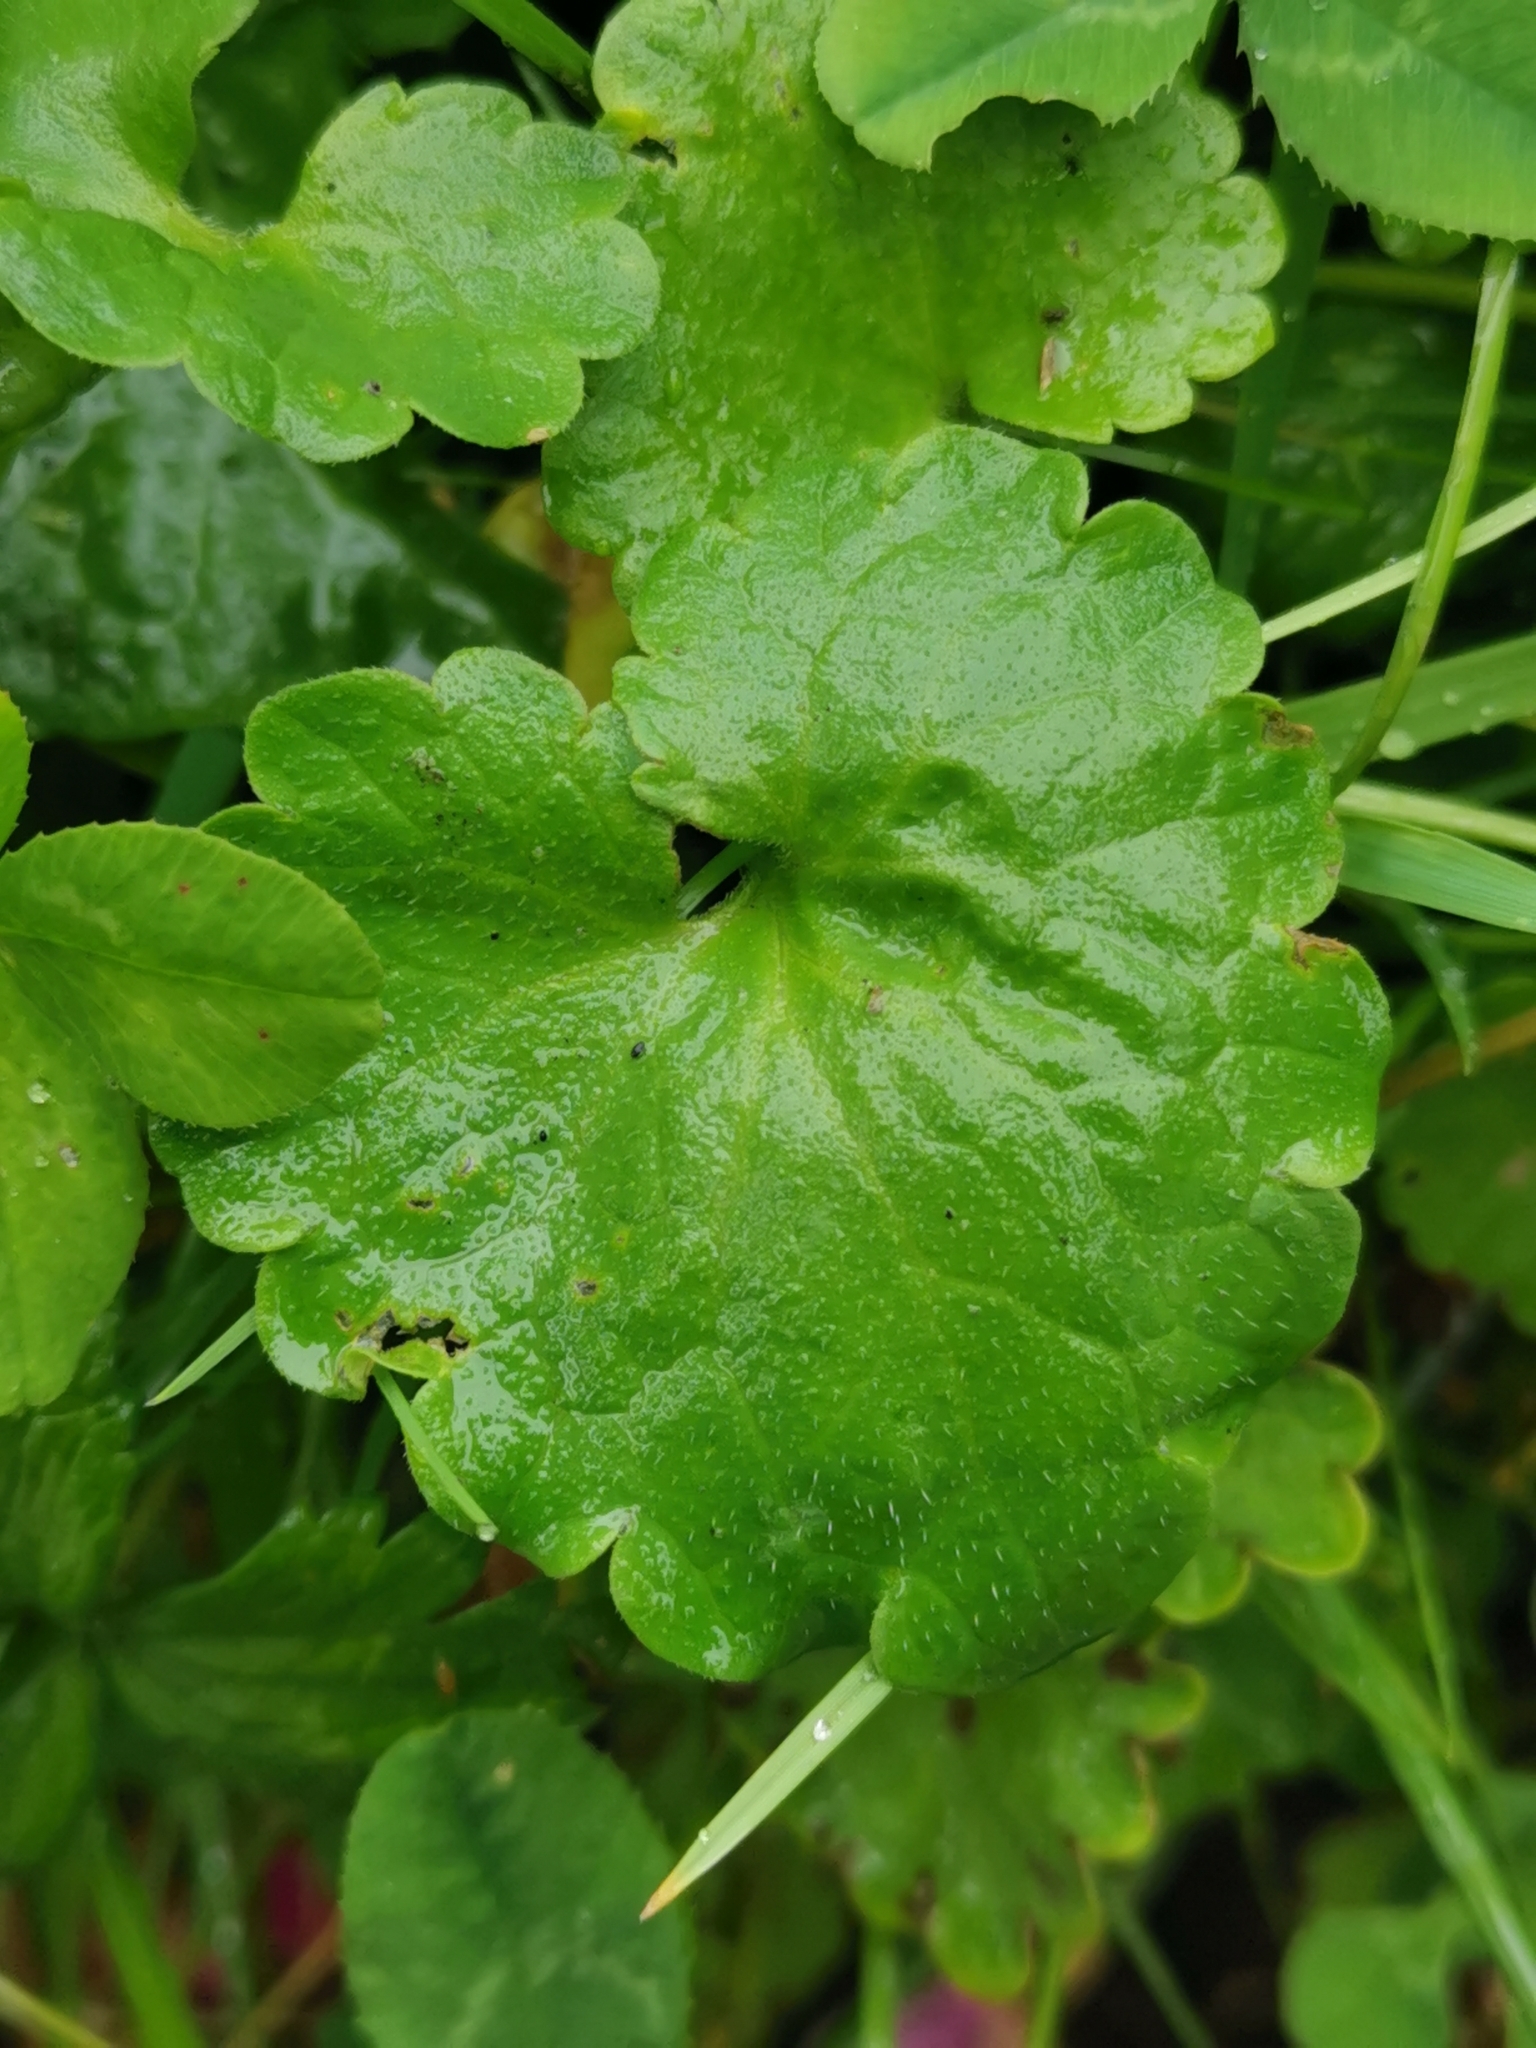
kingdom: Plantae
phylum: Tracheophyta
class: Magnoliopsida
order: Lamiales
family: Lamiaceae
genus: Glechoma
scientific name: Glechoma hederacea
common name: Ground ivy
